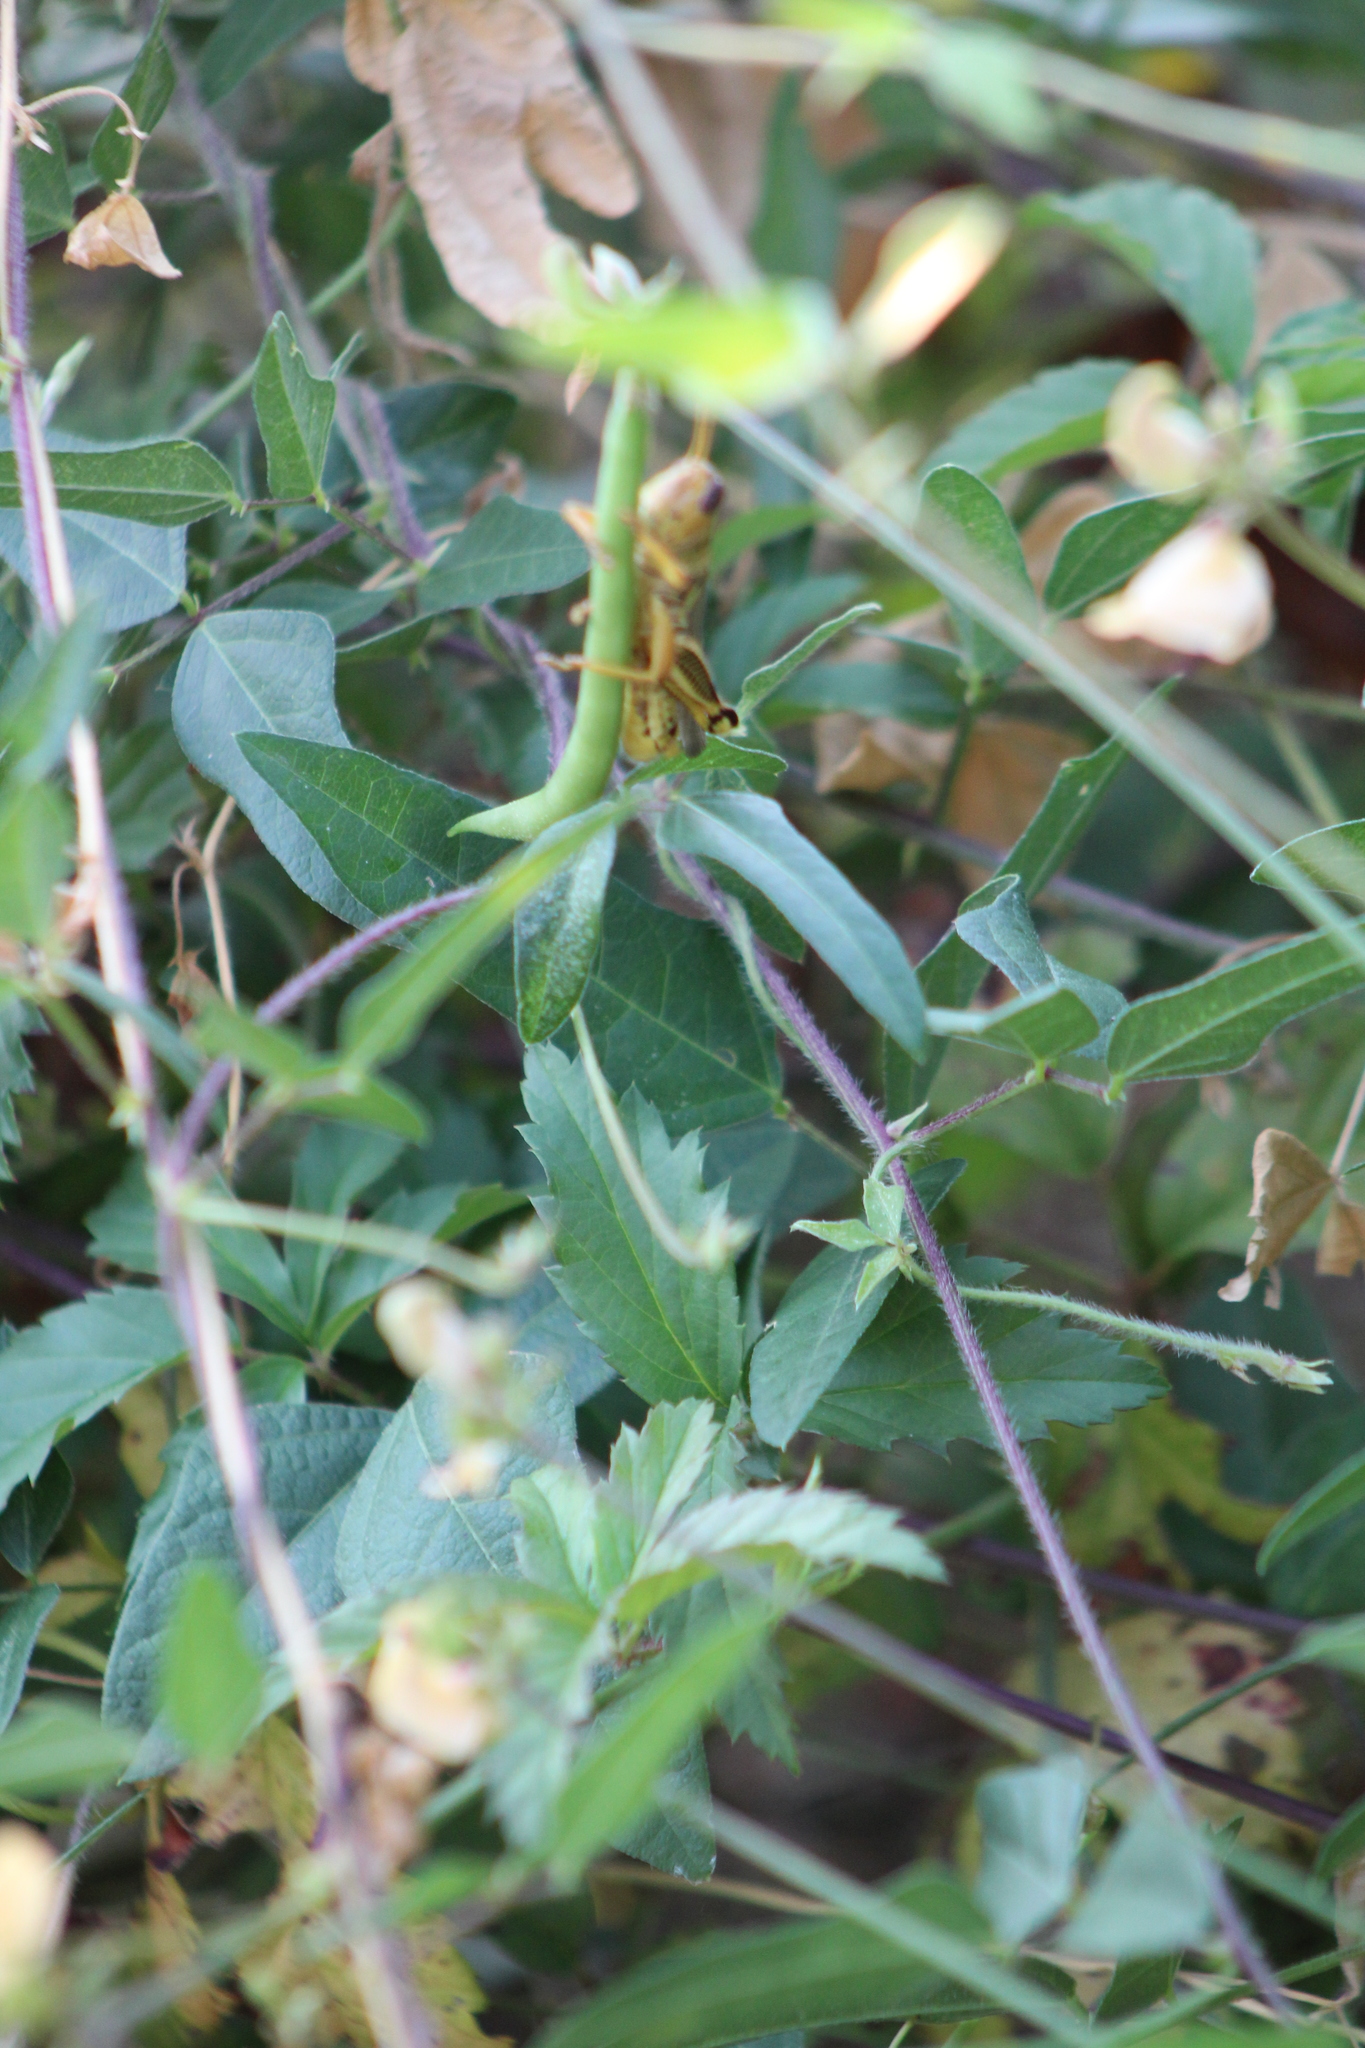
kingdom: Animalia
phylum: Arthropoda
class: Insecta
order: Orthoptera
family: Acrididae
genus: Melanoplus
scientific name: Melanoplus differentialis
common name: Differential grasshopper
